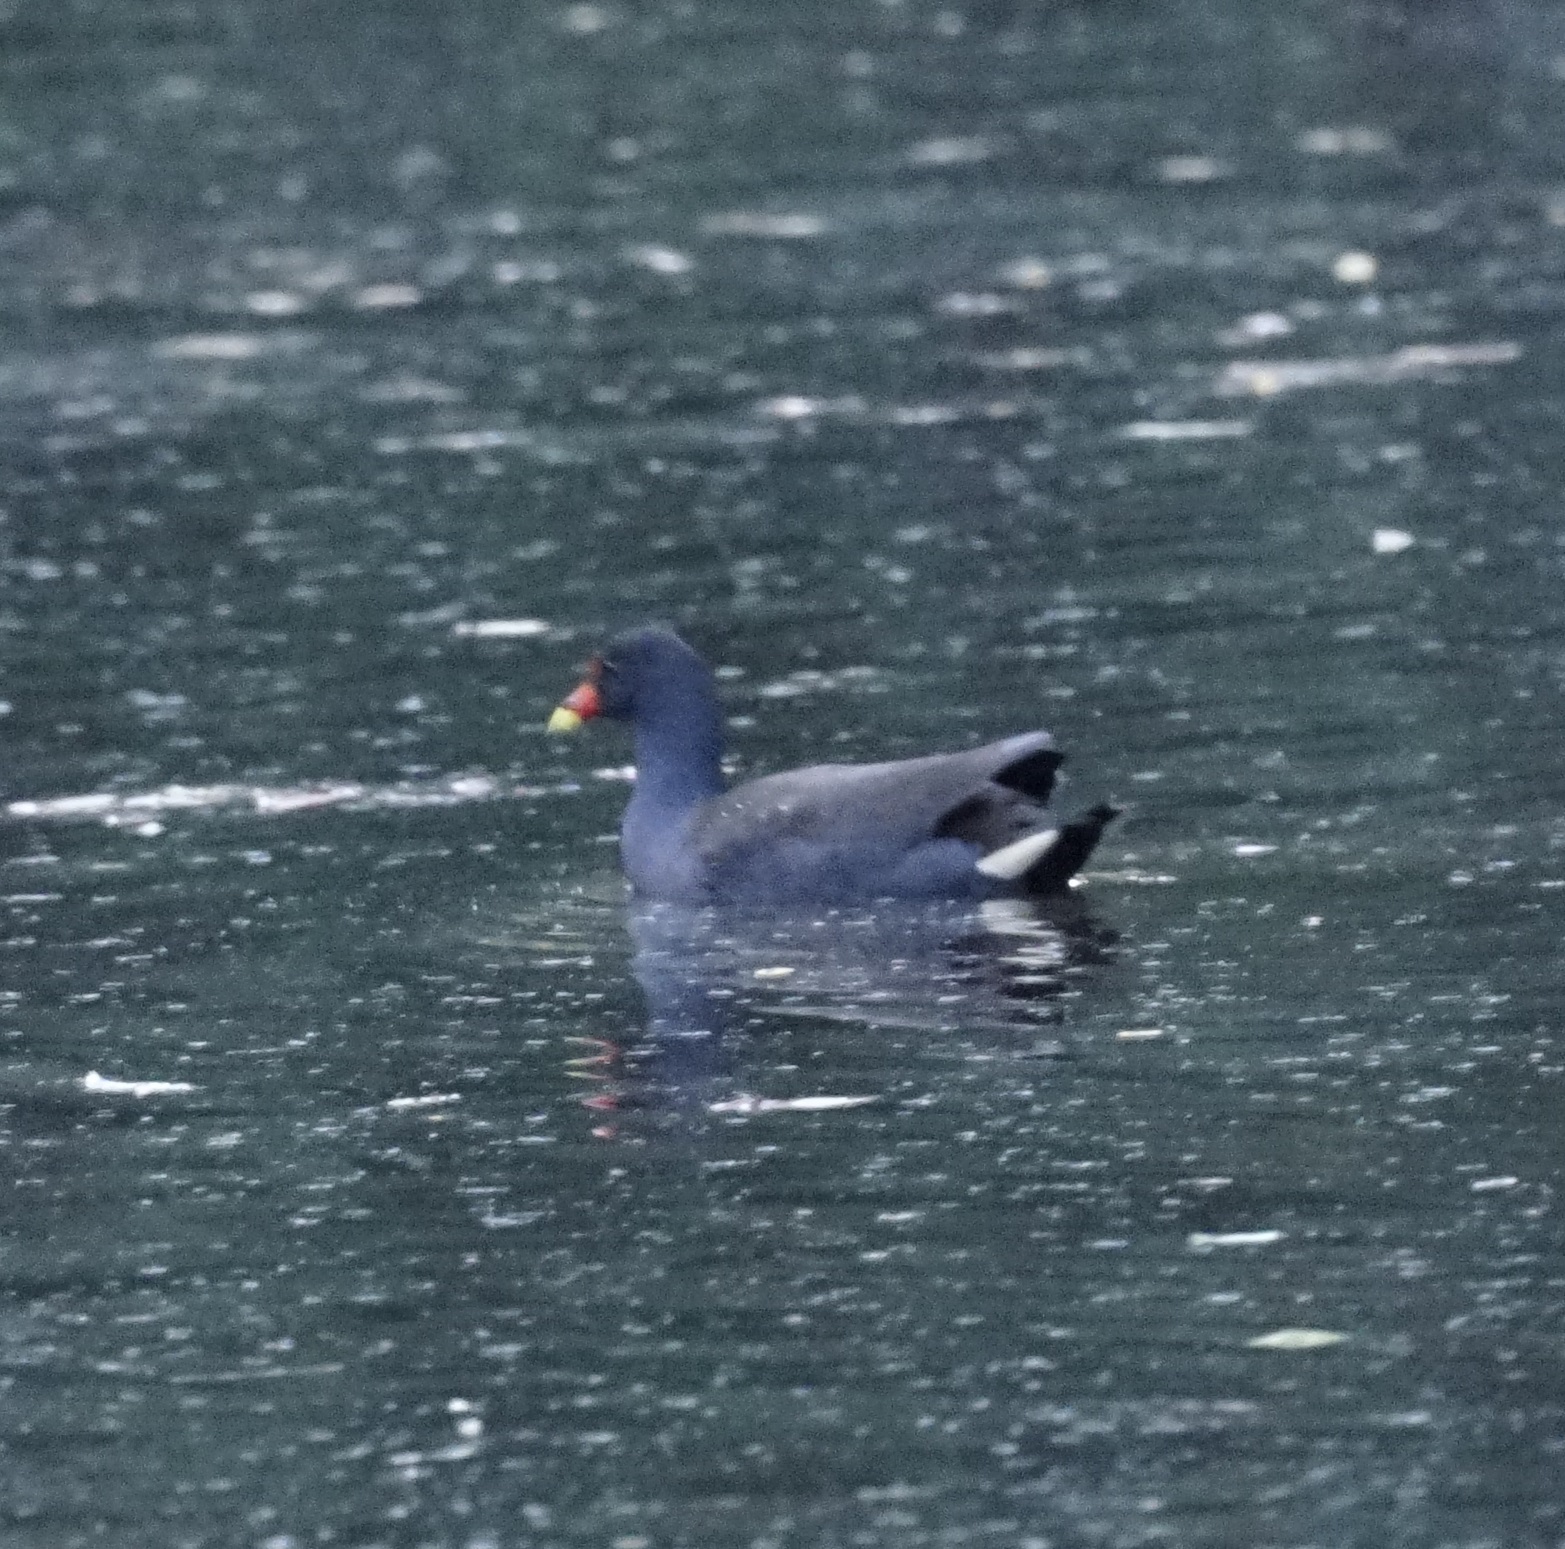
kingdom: Animalia
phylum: Chordata
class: Aves
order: Gruiformes
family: Rallidae
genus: Gallinula
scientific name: Gallinula tenebrosa
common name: Dusky moorhen
